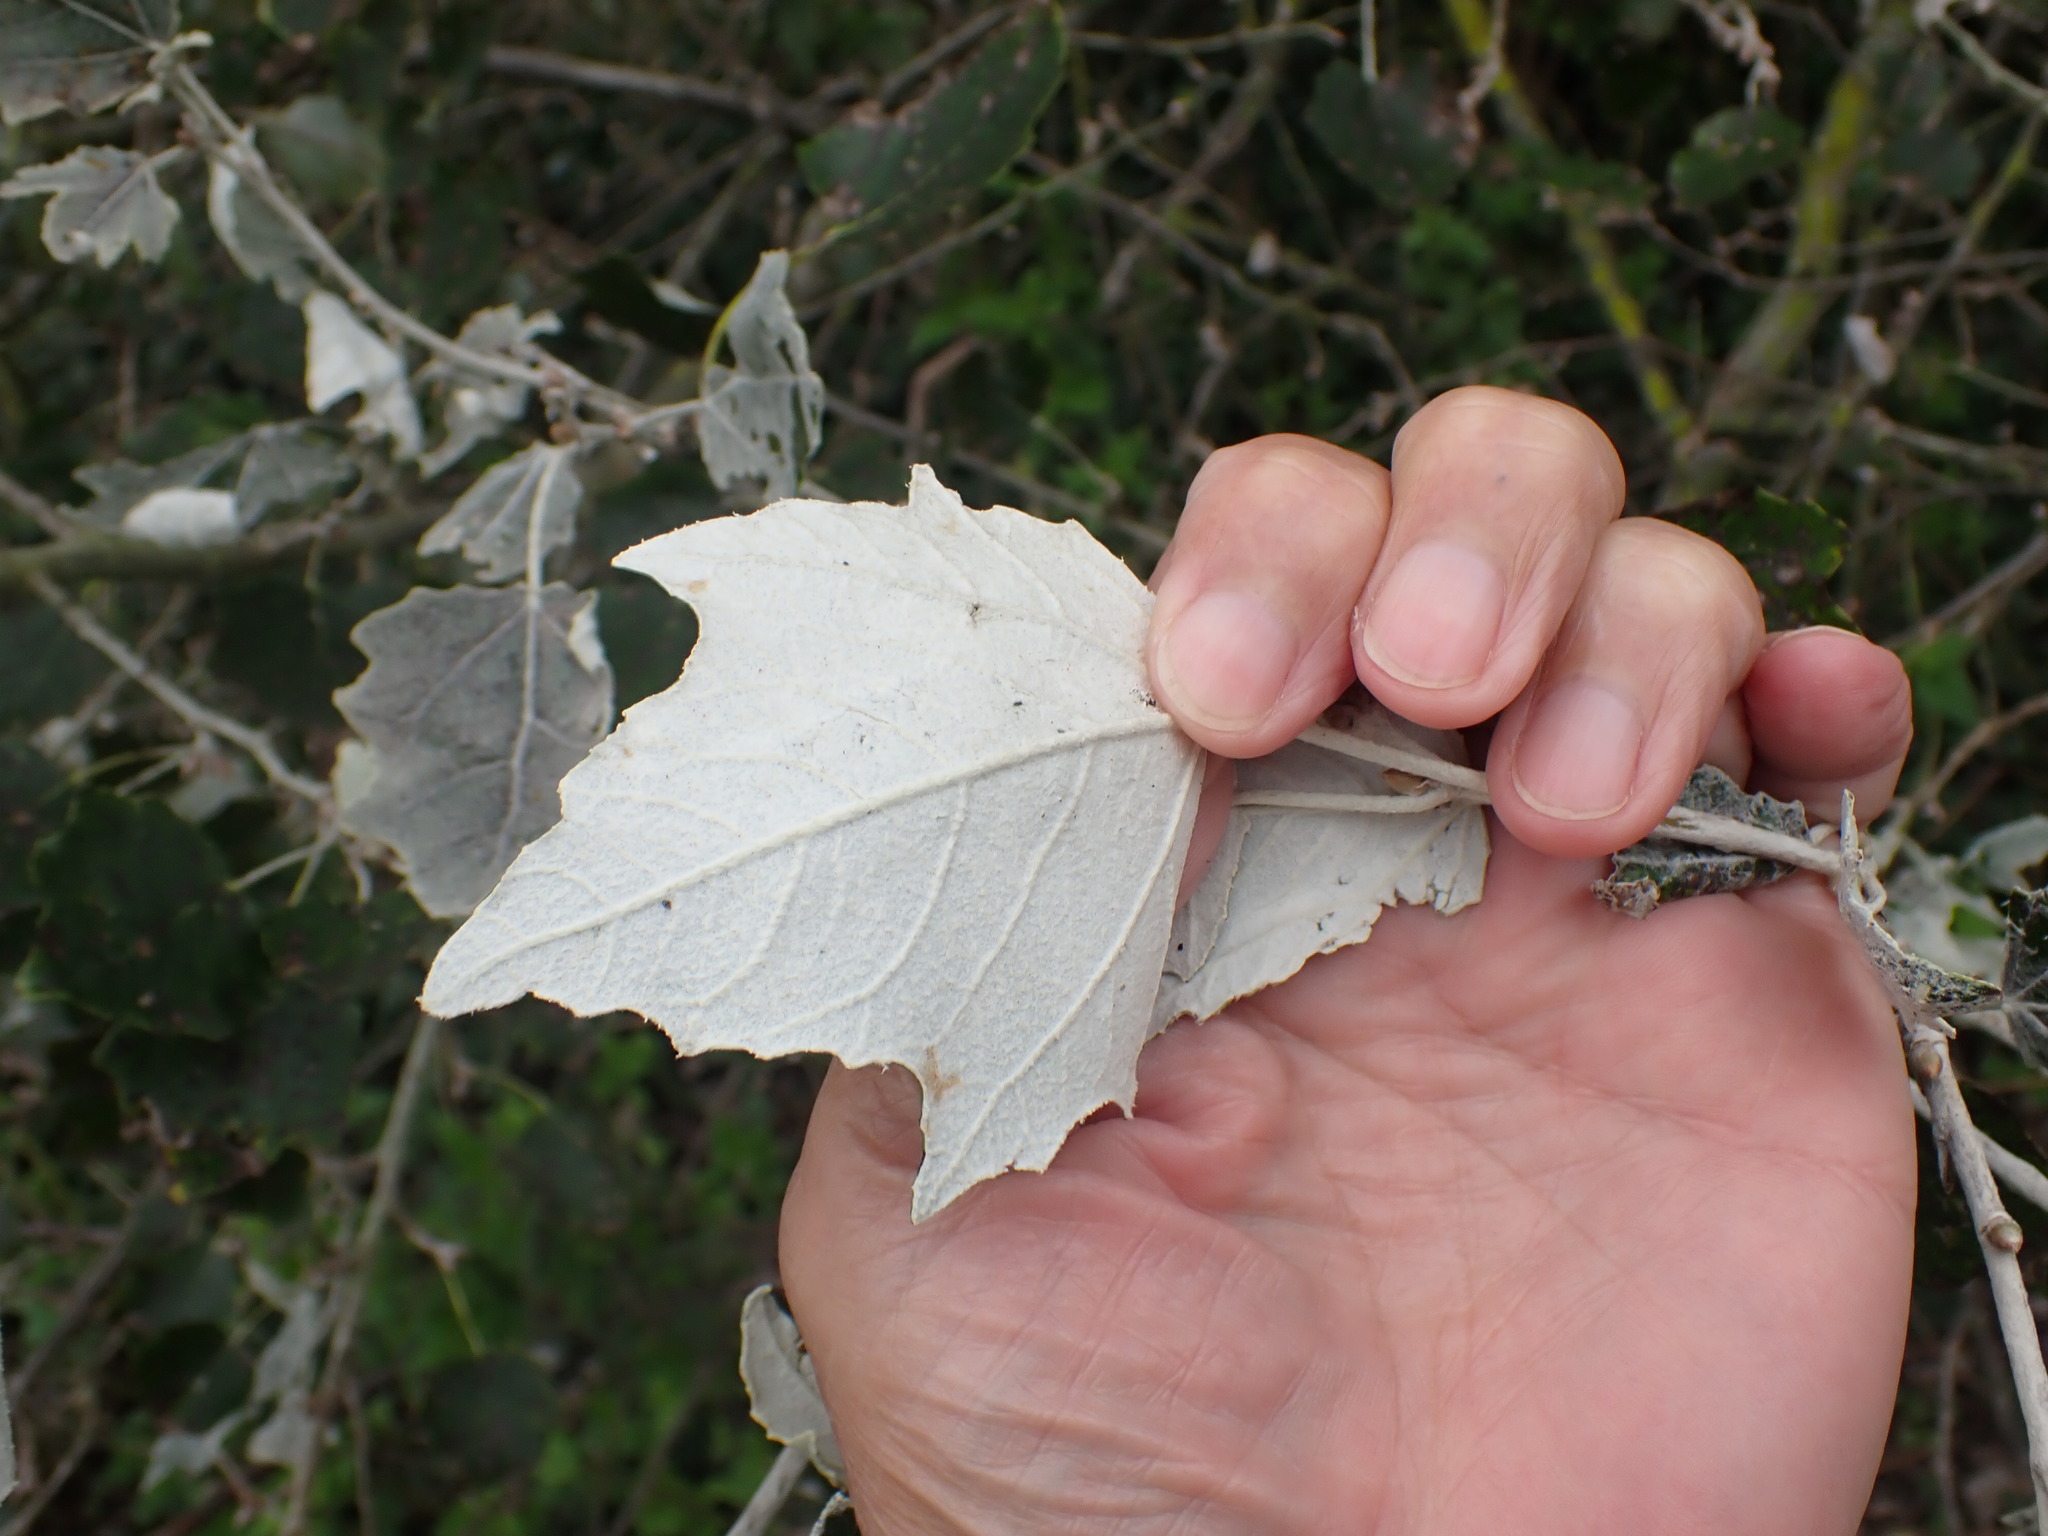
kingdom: Plantae
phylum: Tracheophyta
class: Magnoliopsida
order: Malpighiales
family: Salicaceae
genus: Populus
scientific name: Populus alba
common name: White poplar
